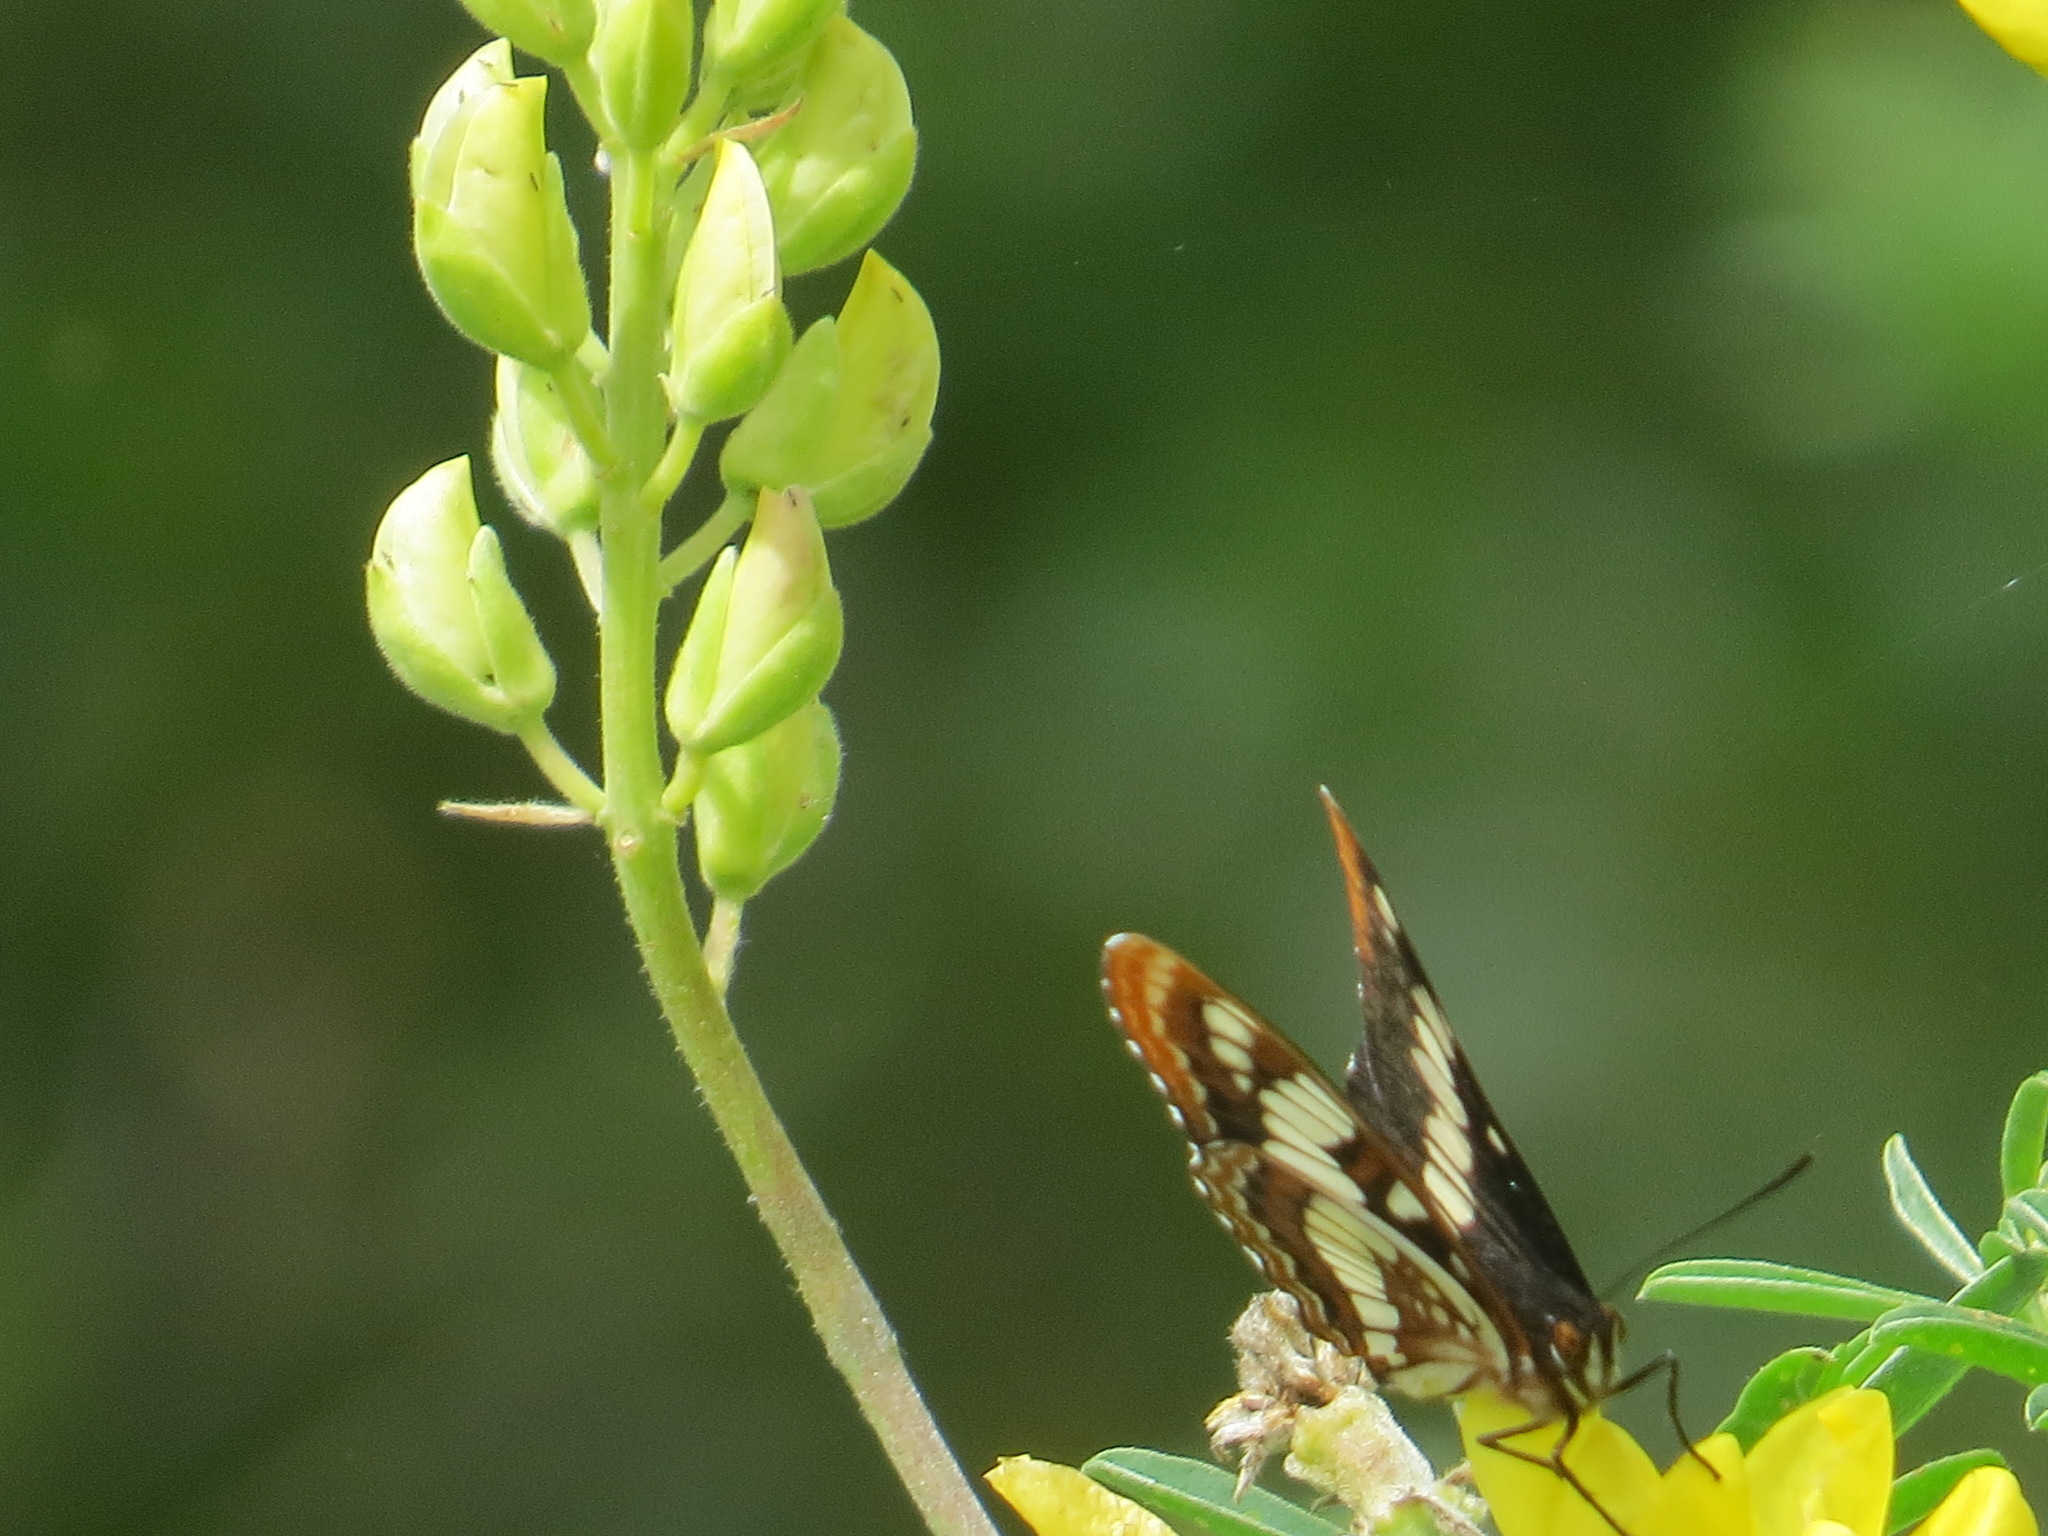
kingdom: Animalia
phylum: Arthropoda
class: Insecta
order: Lepidoptera
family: Nymphalidae
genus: Limenitis
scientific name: Limenitis lorquini
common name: Lorquin's admiral
